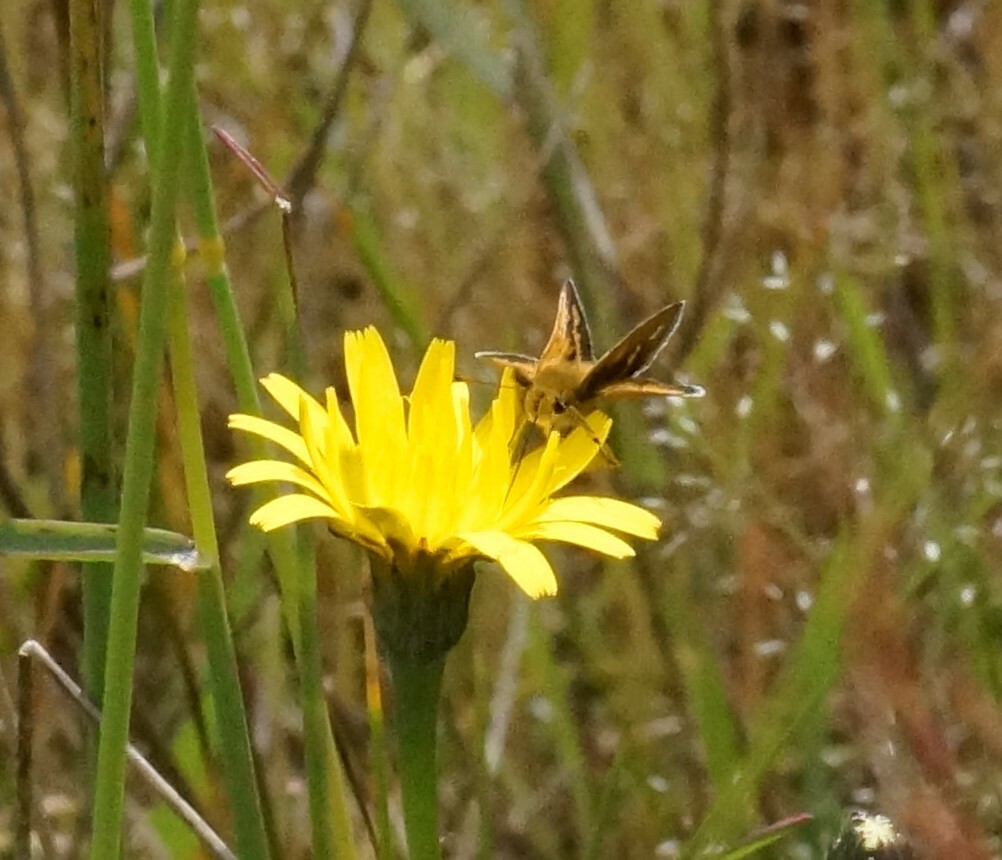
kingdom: Animalia
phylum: Arthropoda
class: Insecta
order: Lepidoptera
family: Hesperiidae
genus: Taractrocera
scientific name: Taractrocera papyria
